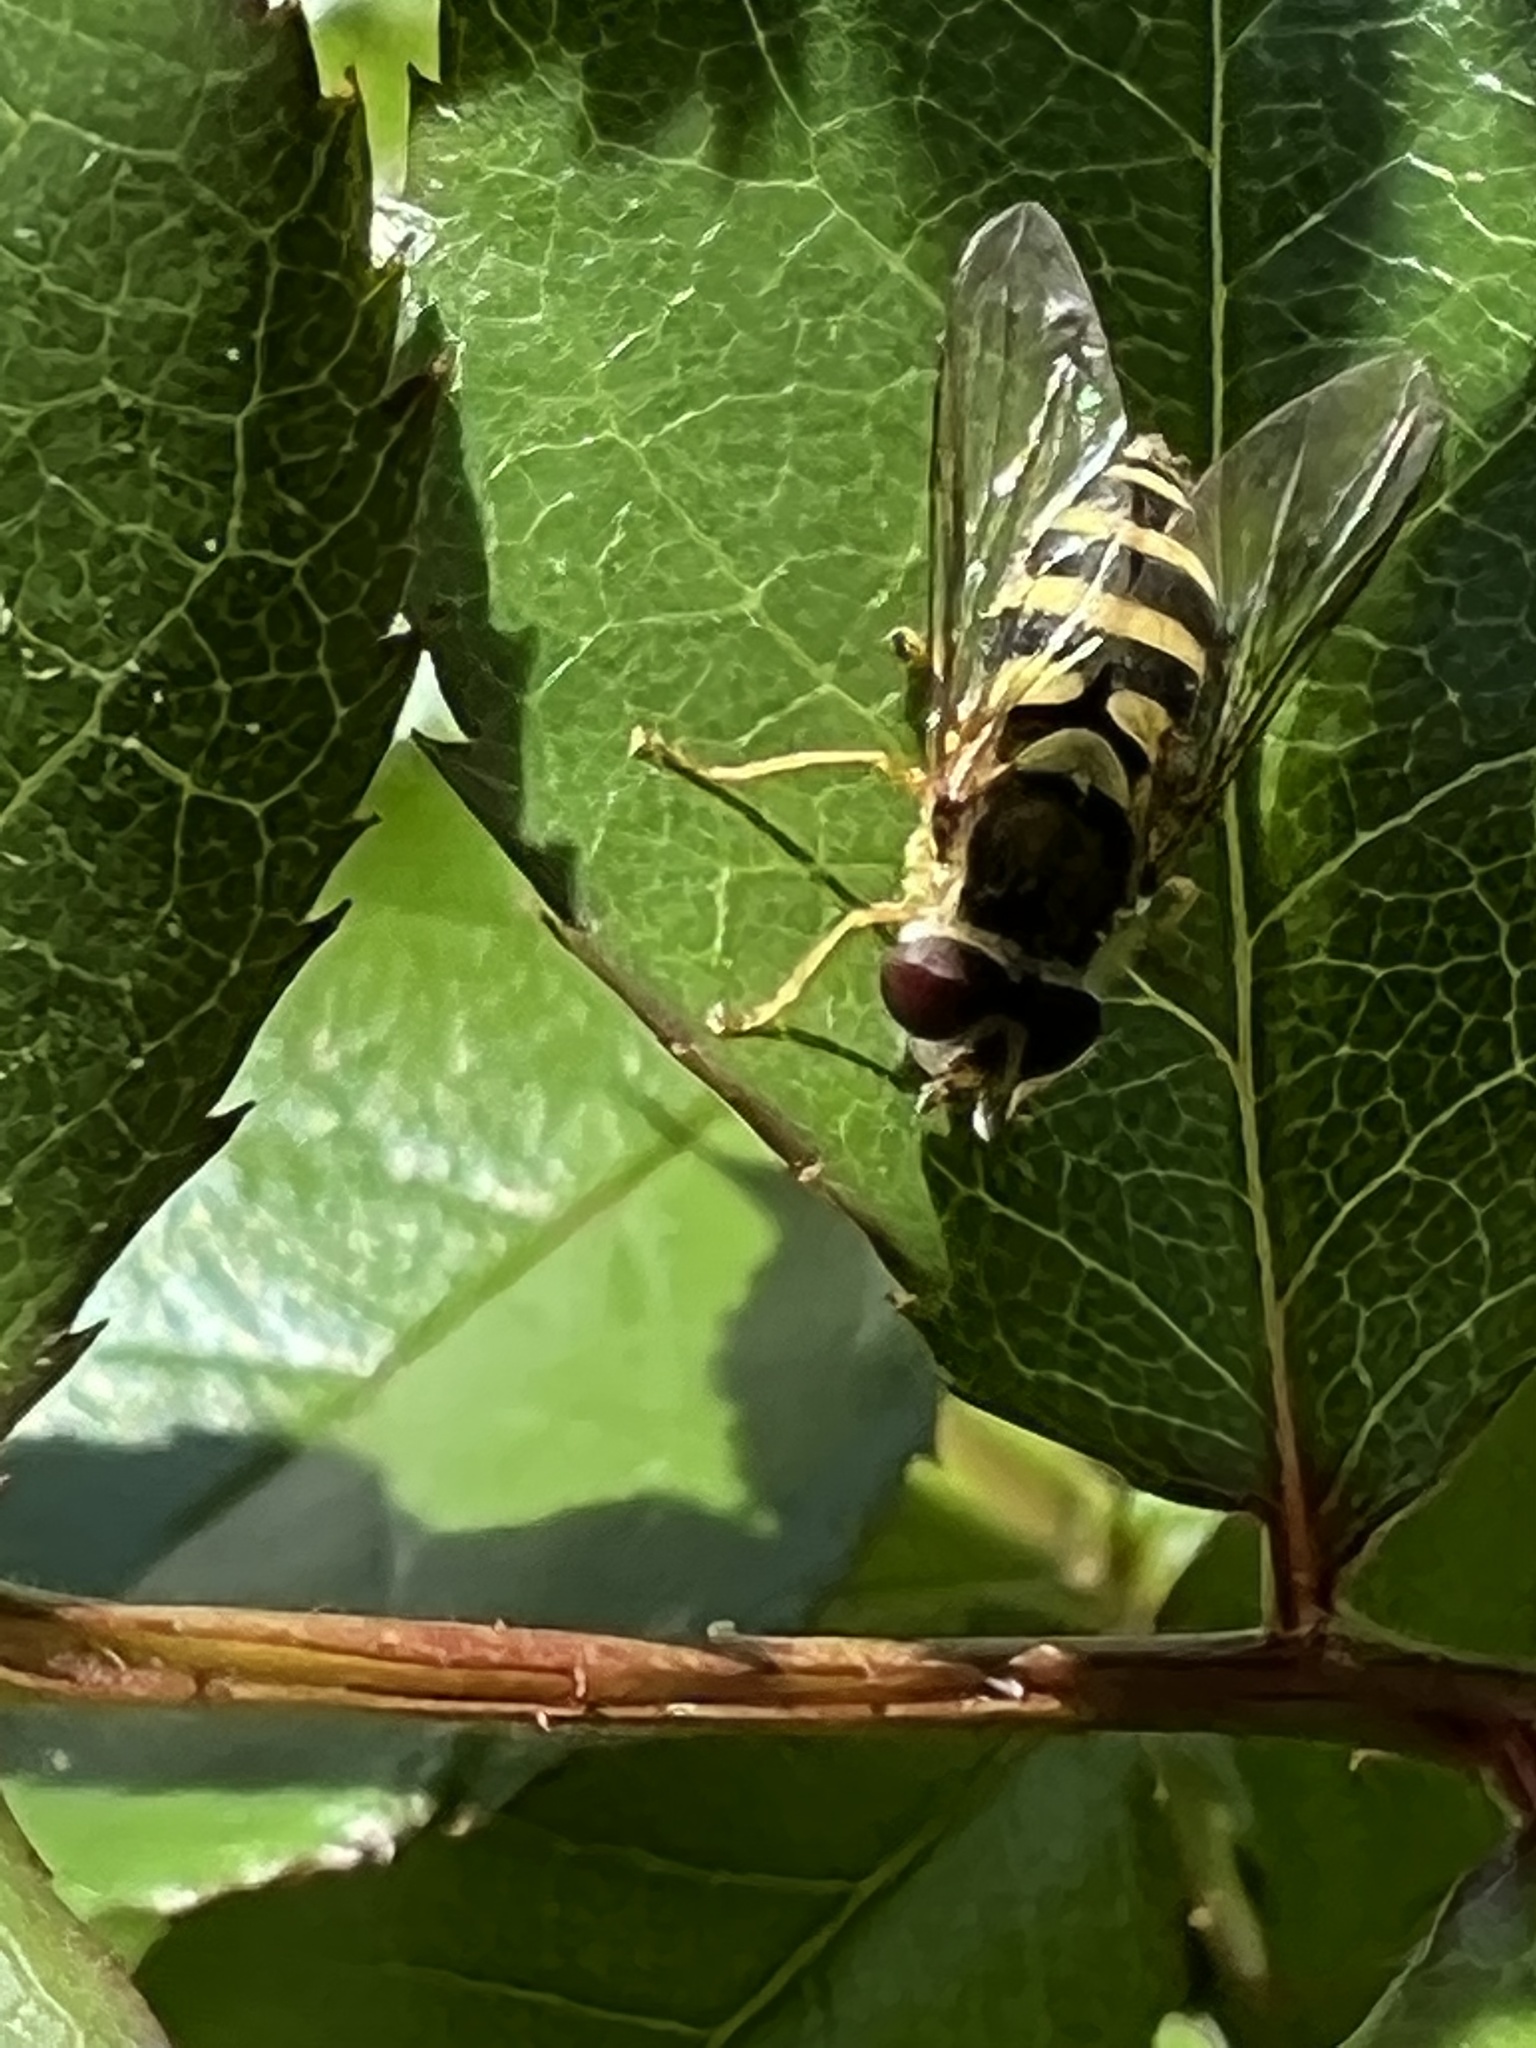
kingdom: Animalia
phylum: Arthropoda
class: Insecta
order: Diptera
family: Syrphidae
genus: Syrphus
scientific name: Syrphus
